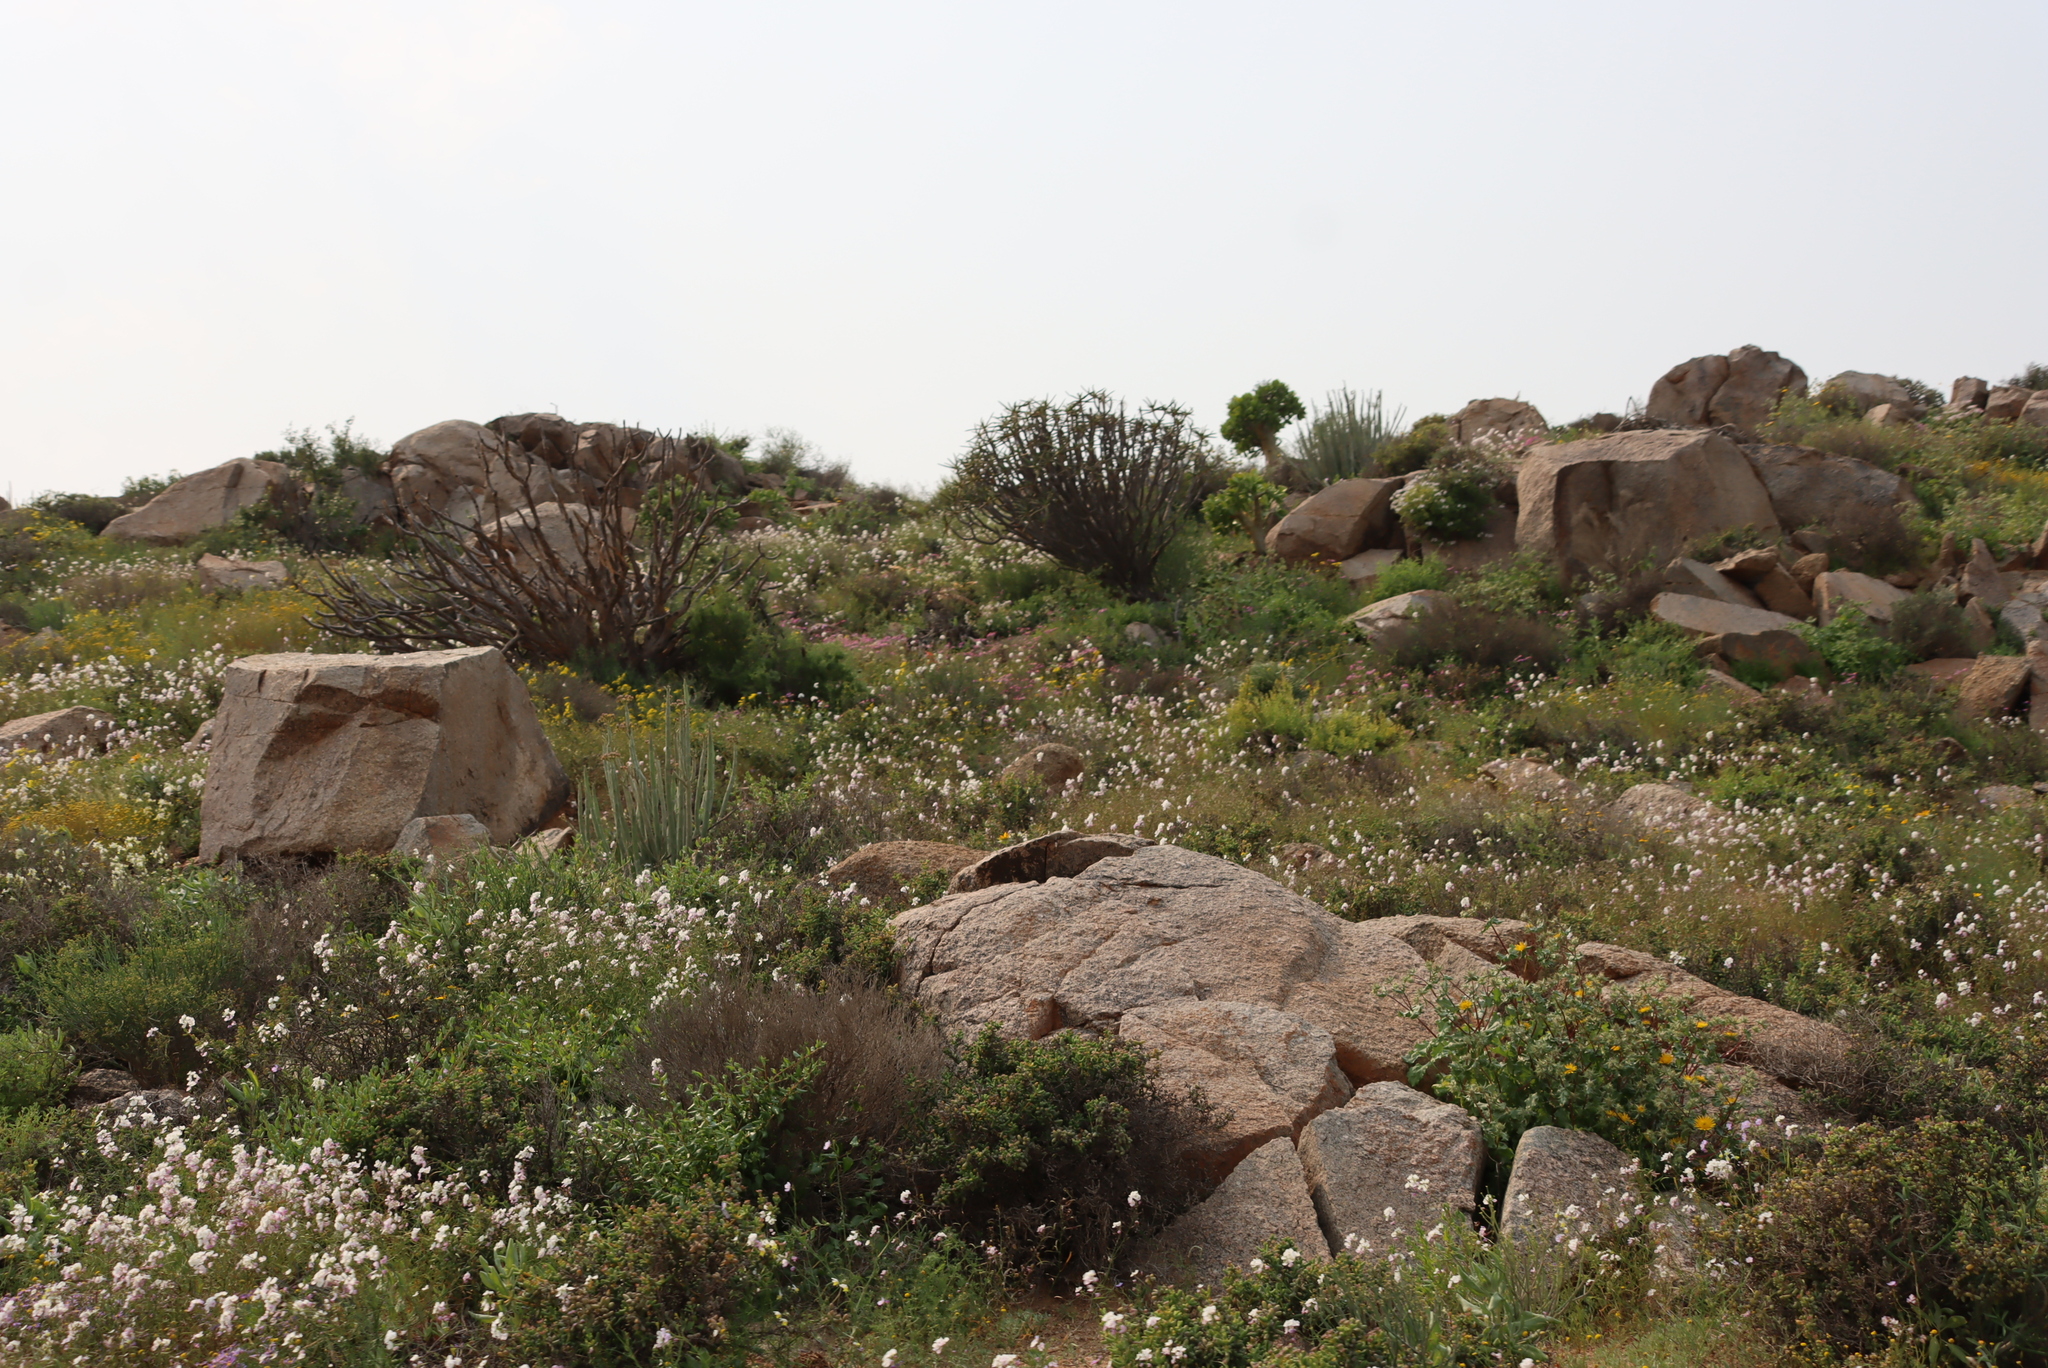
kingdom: Plantae
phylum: Tracheophyta
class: Magnoliopsida
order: Brassicales
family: Brassicaceae
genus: Heliophila
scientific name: Heliophila variabilis
